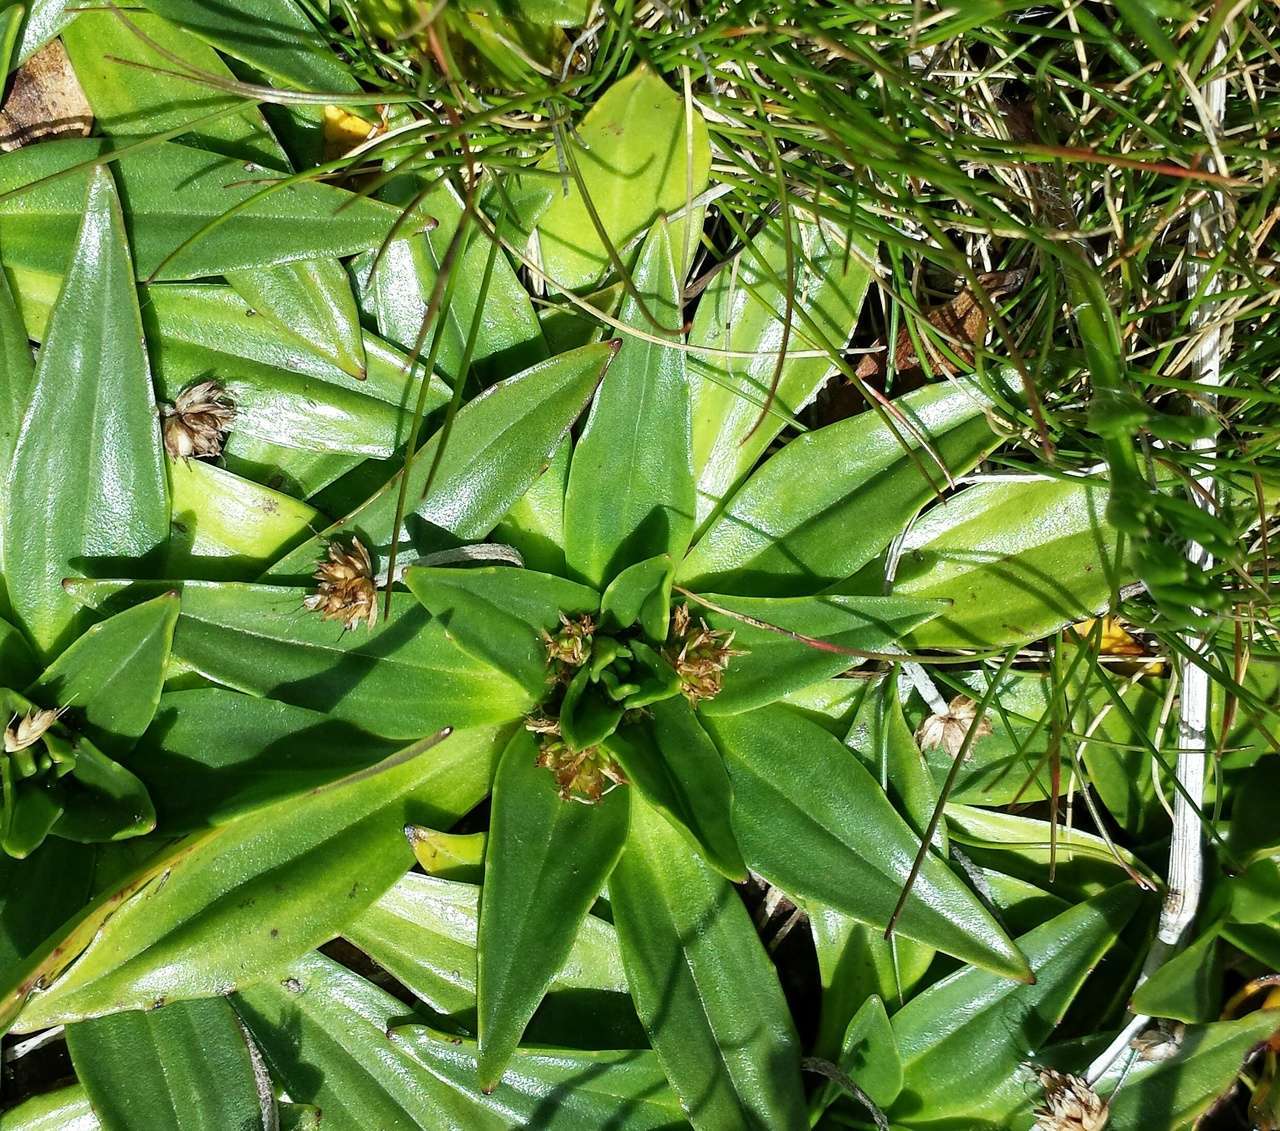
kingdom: Plantae
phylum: Tracheophyta
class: Magnoliopsida
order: Lamiales
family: Plantaginaceae
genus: Plantago
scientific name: Plantago muelleri
